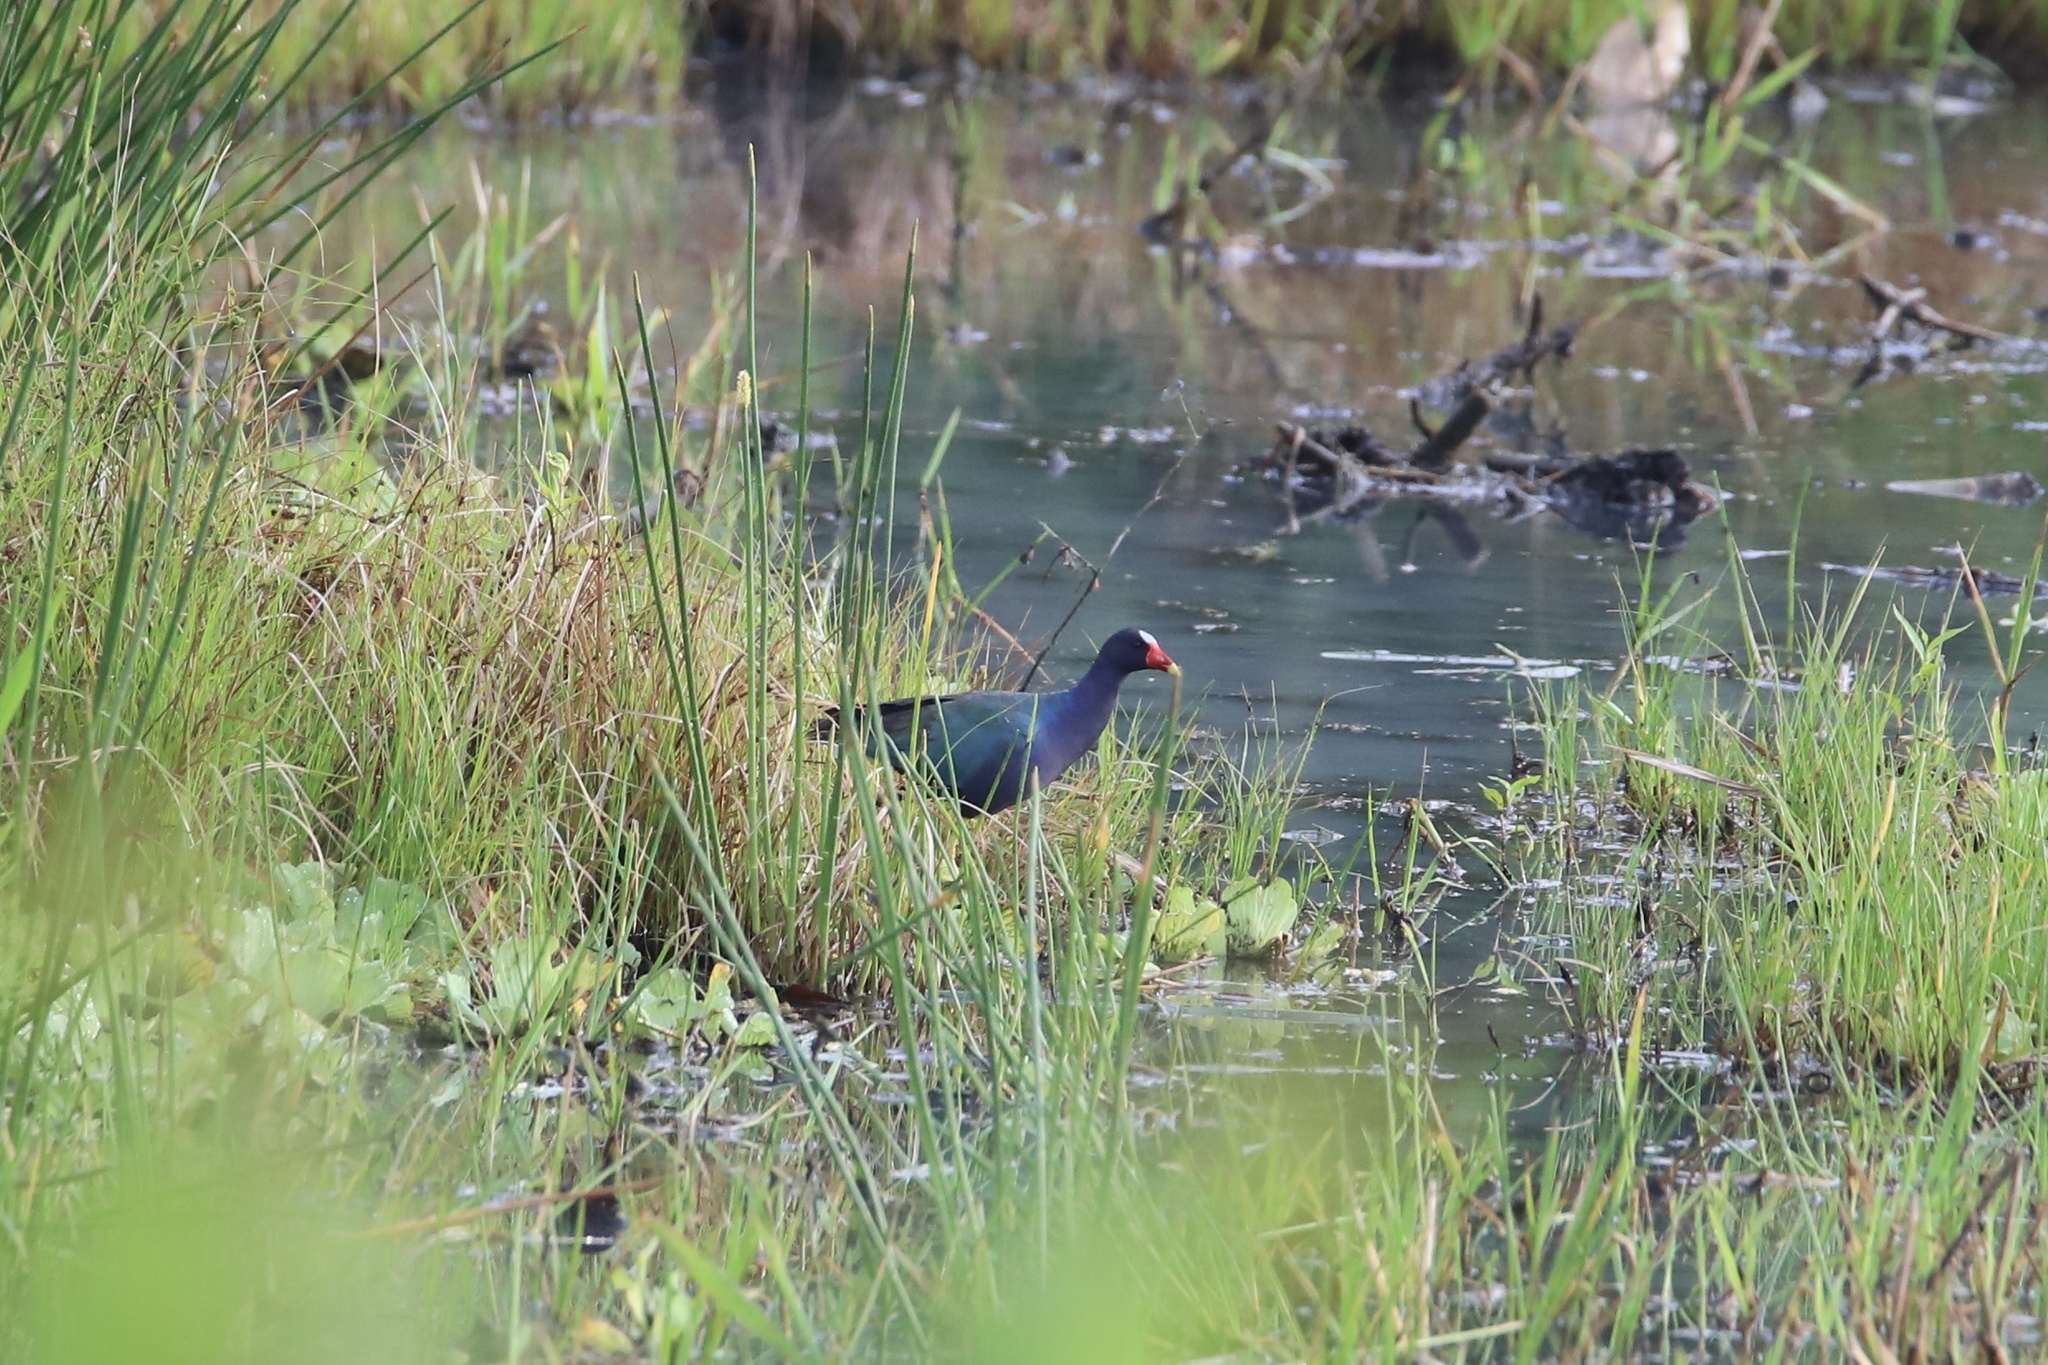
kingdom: Animalia
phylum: Chordata
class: Aves
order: Gruiformes
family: Rallidae
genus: Porphyrio
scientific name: Porphyrio martinica
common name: Purple gallinule
